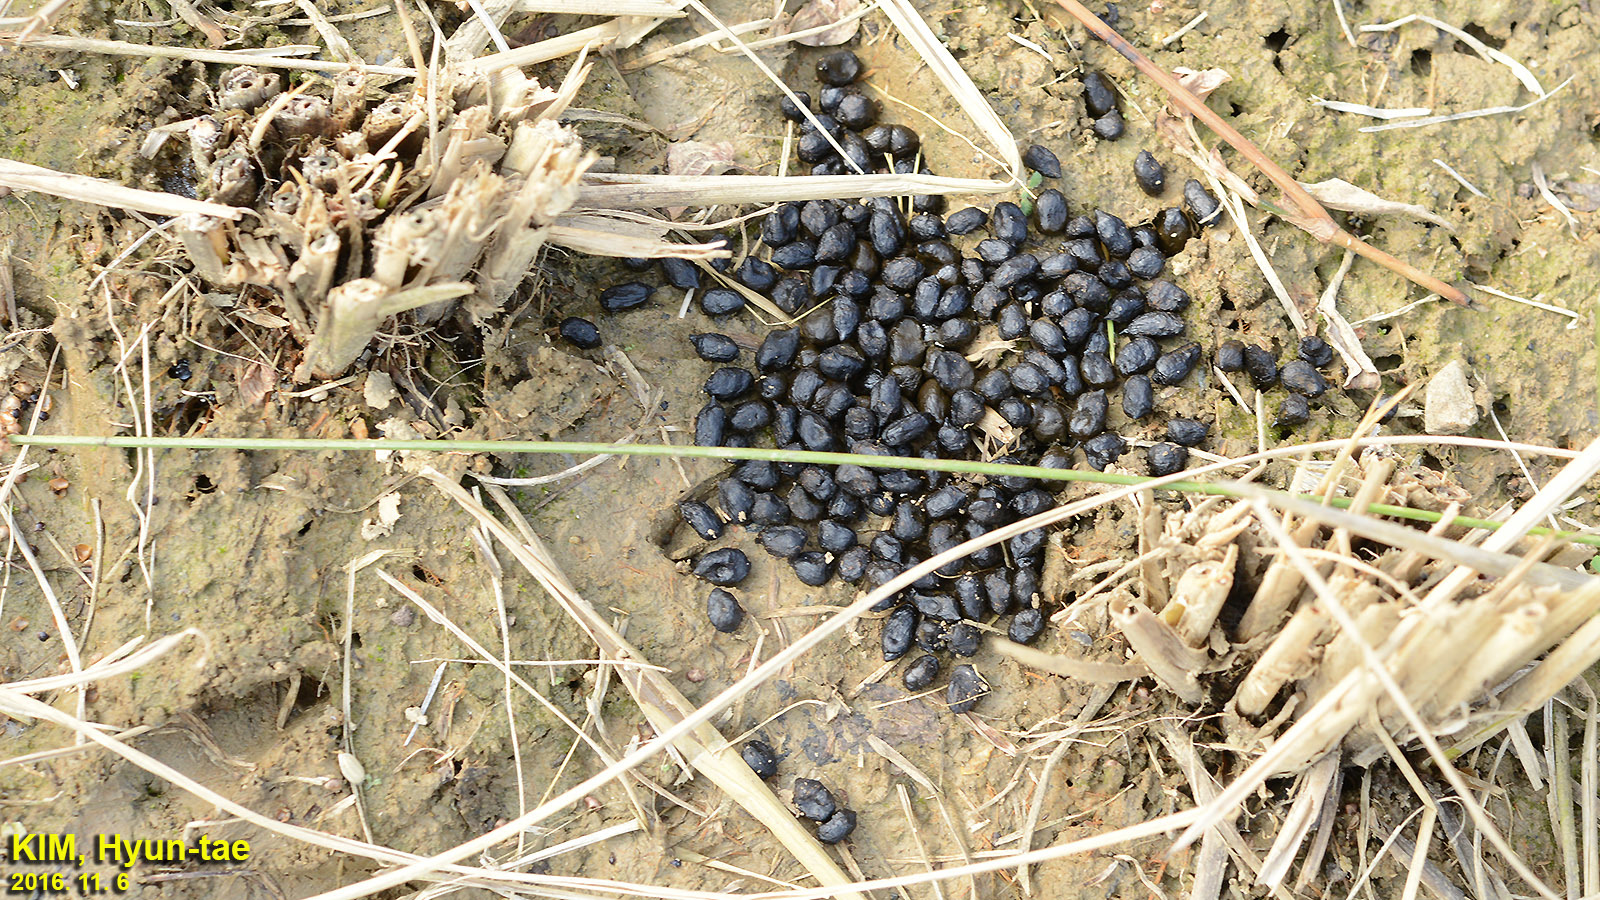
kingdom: Animalia
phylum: Chordata
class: Mammalia
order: Artiodactyla
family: Cervidae
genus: Hydropotes
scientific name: Hydropotes inermis
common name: Chinese water deer
